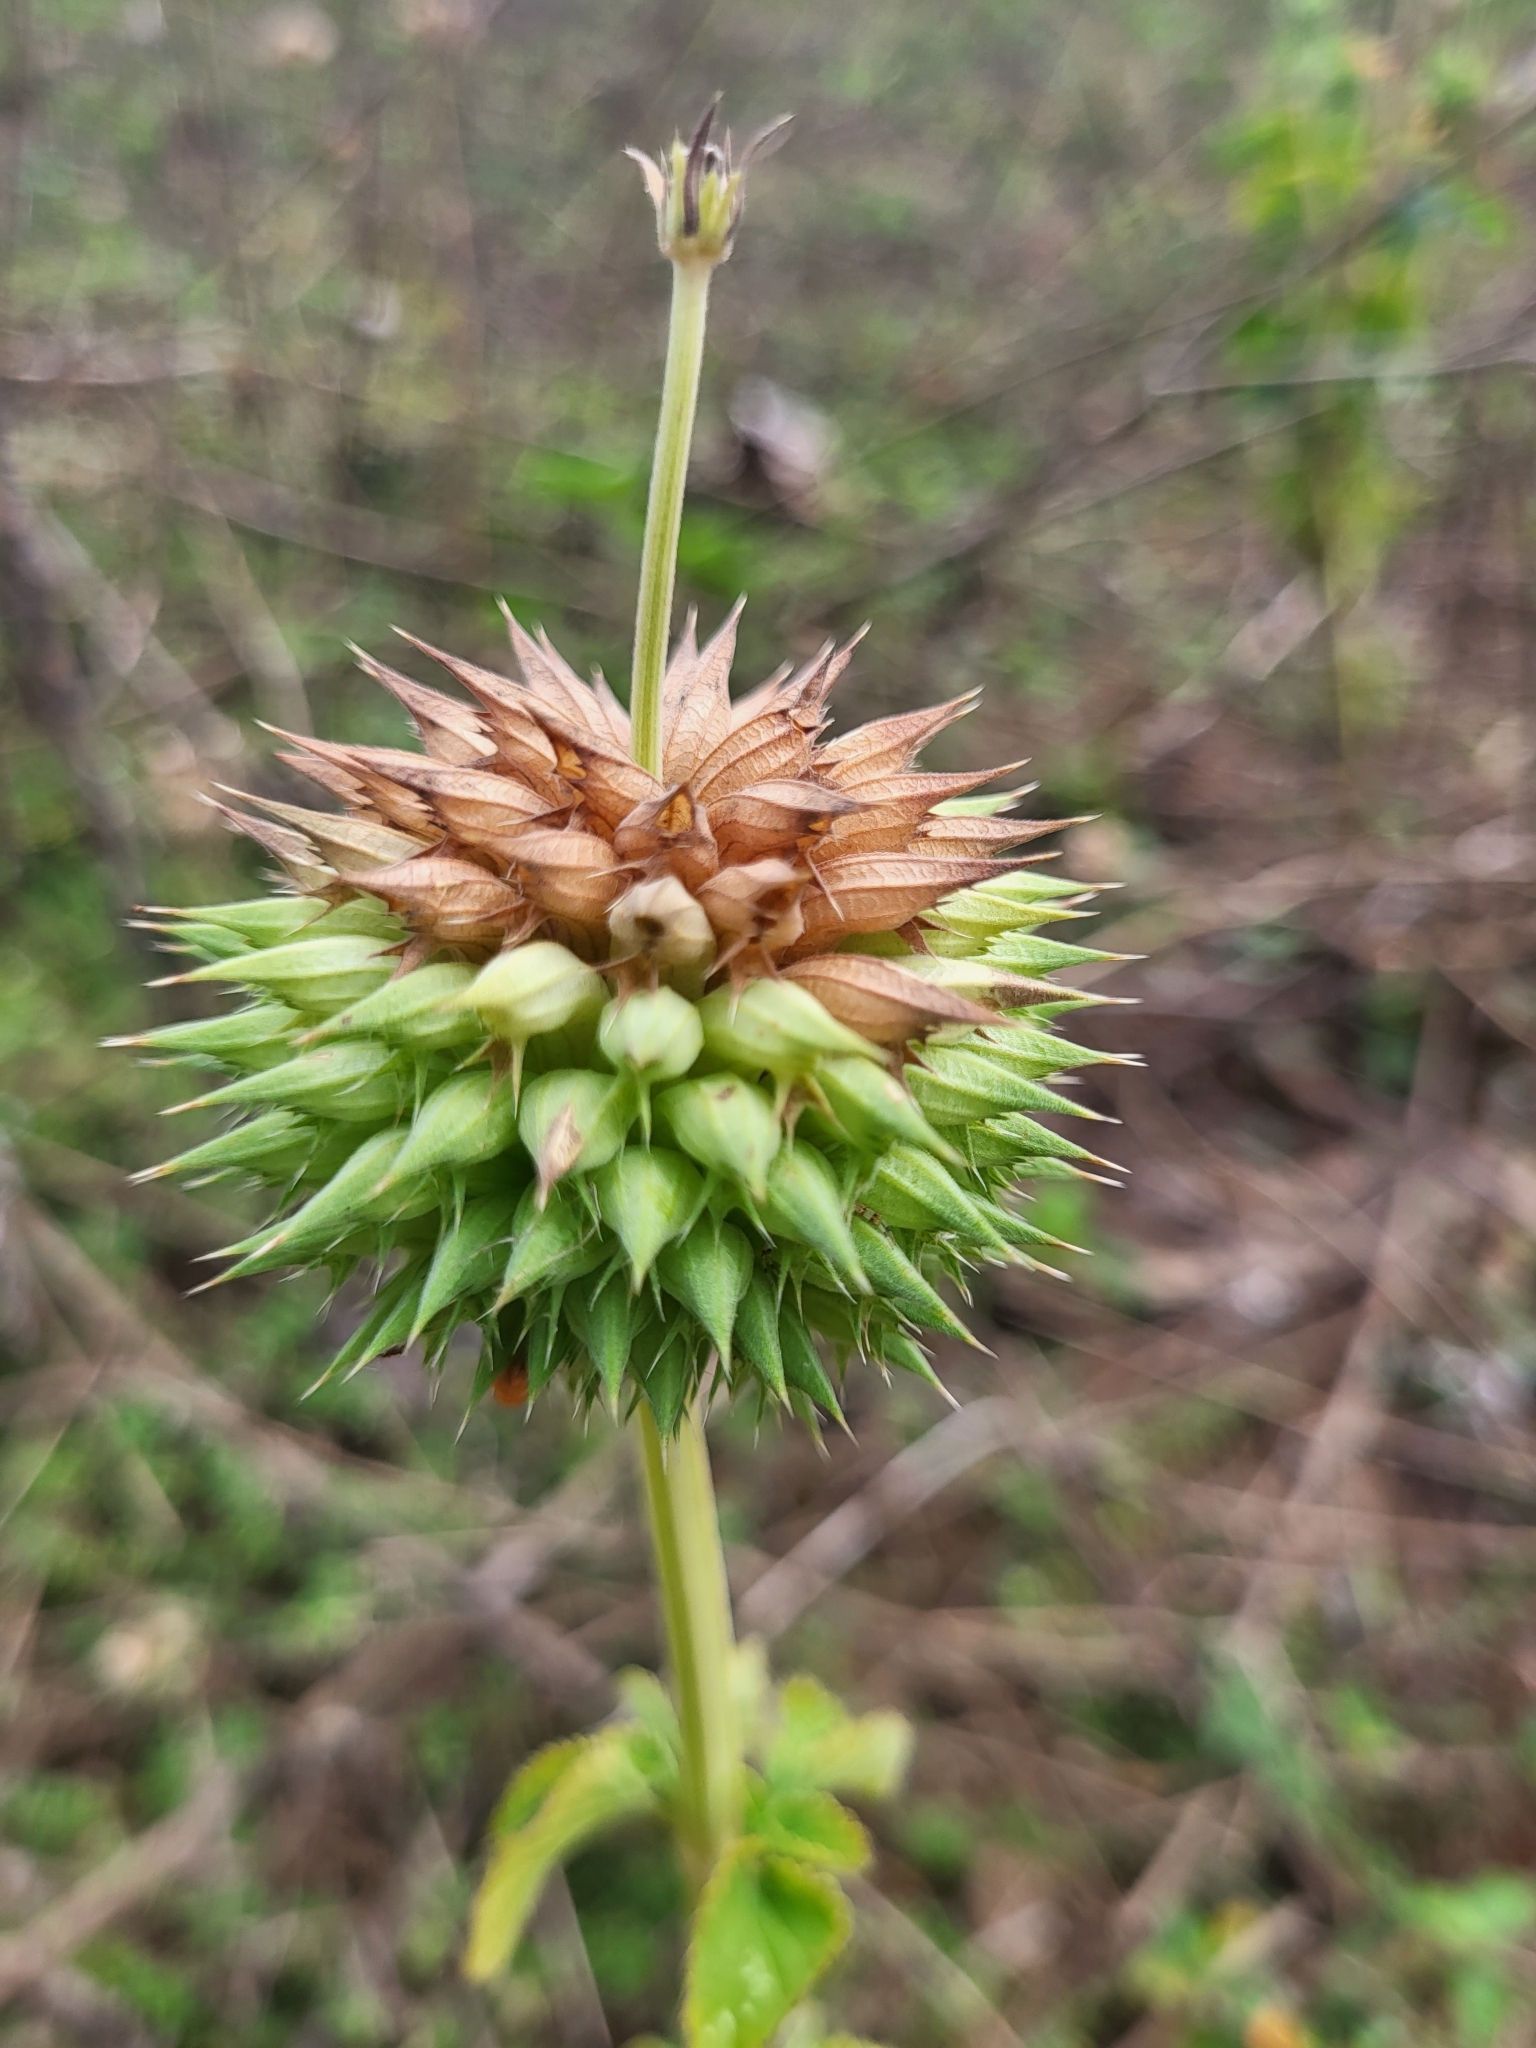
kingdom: Plantae
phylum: Tracheophyta
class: Magnoliopsida
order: Lamiales
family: Lamiaceae
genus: Leonotis
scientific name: Leonotis nepetifolia
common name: Christmas candlestick
